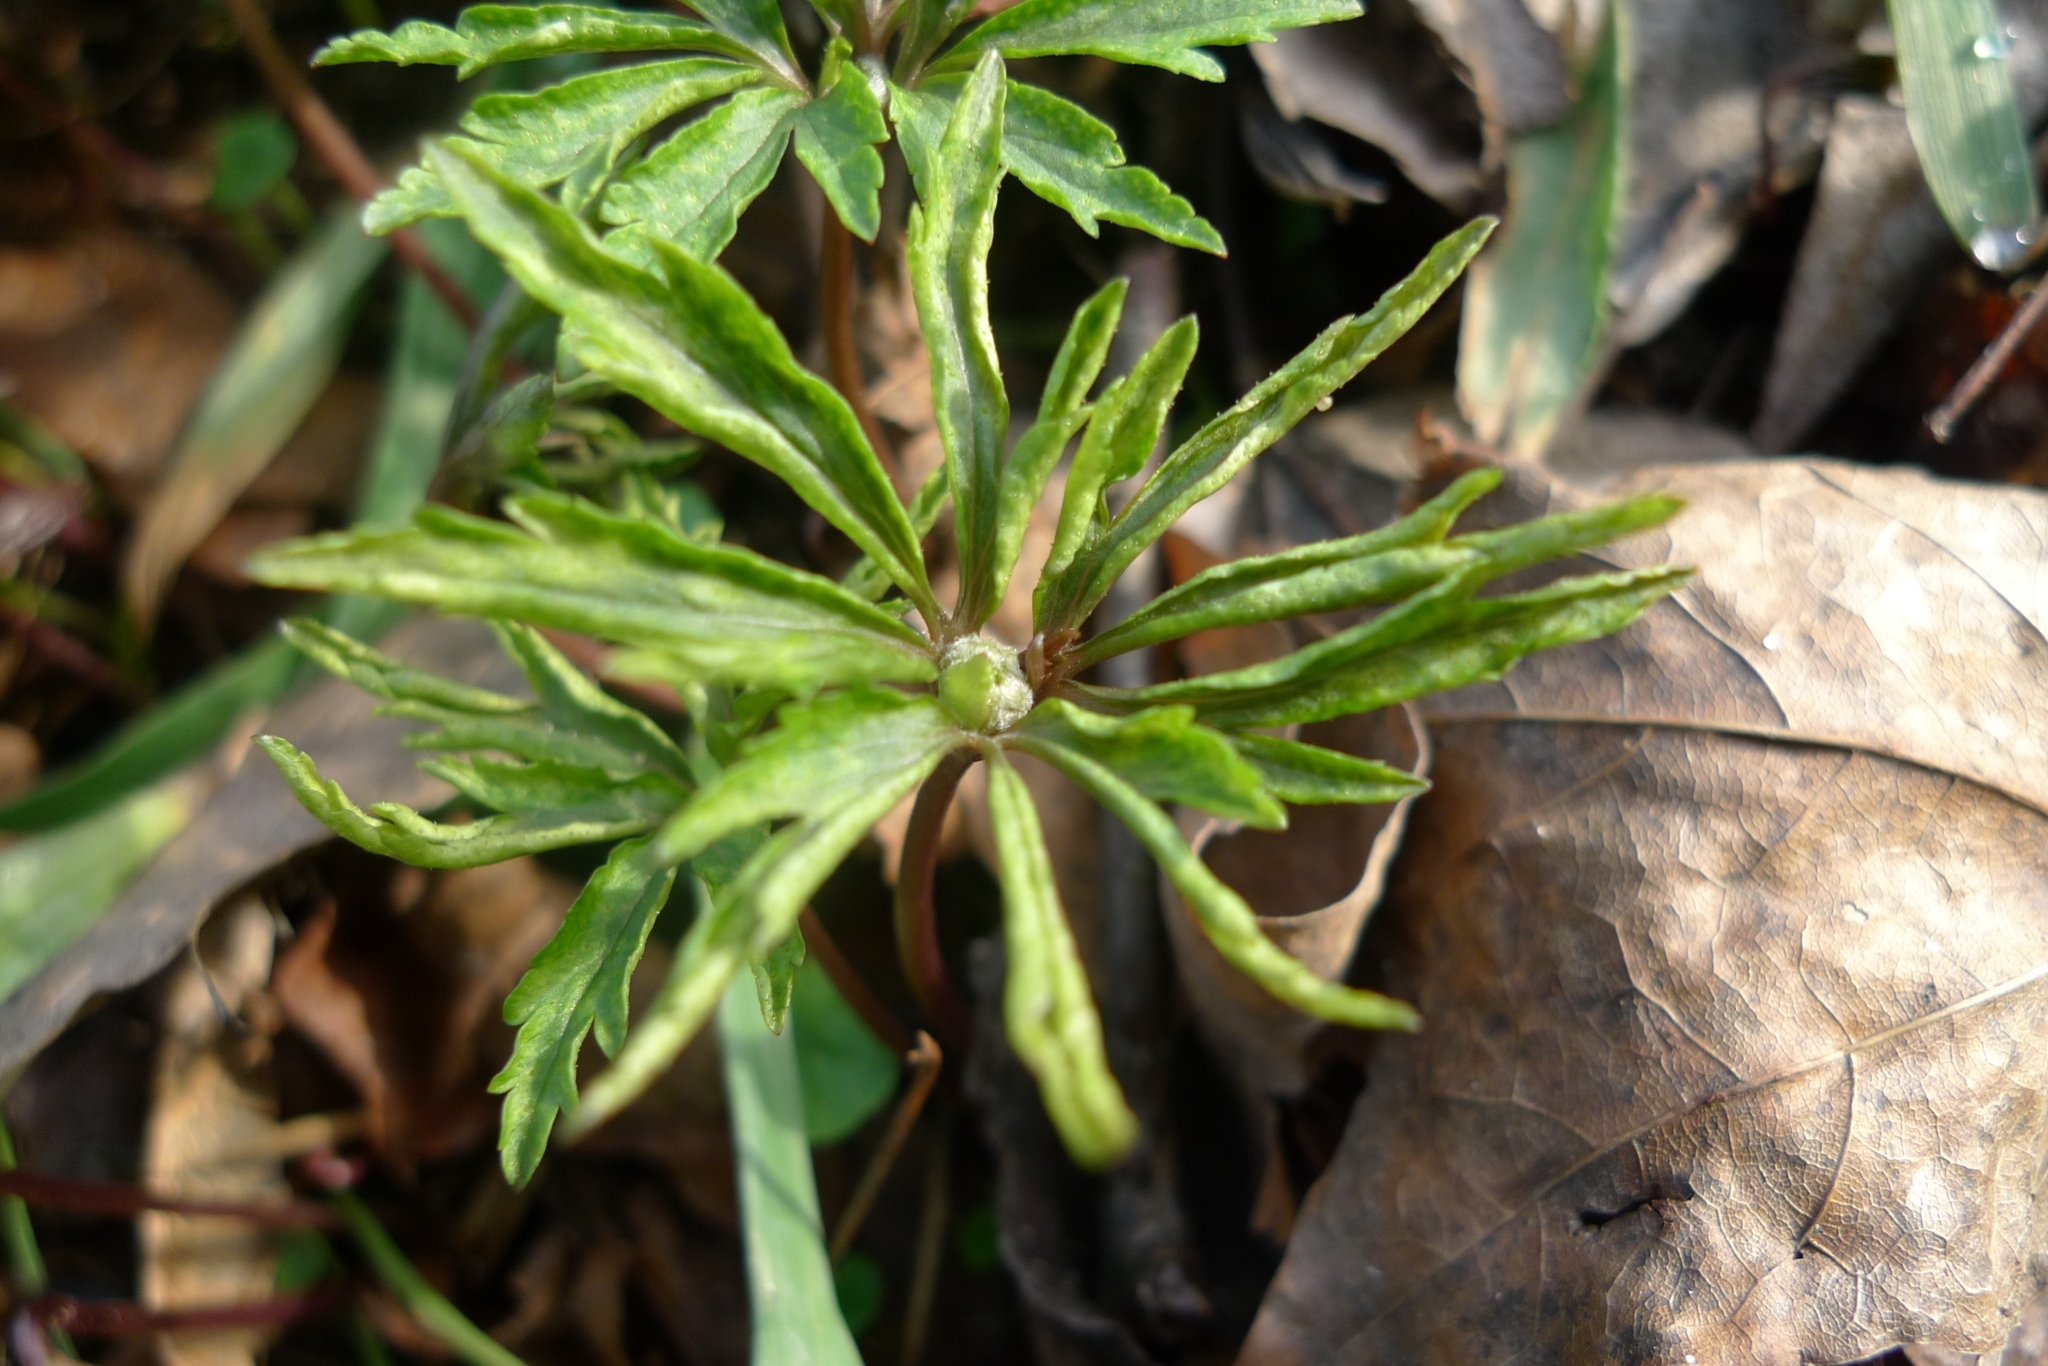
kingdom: Plantae
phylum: Tracheophyta
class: Magnoliopsida
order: Ranunculales
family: Ranunculaceae
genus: Anemone
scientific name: Anemone ranunculoides
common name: Yellow anemone
